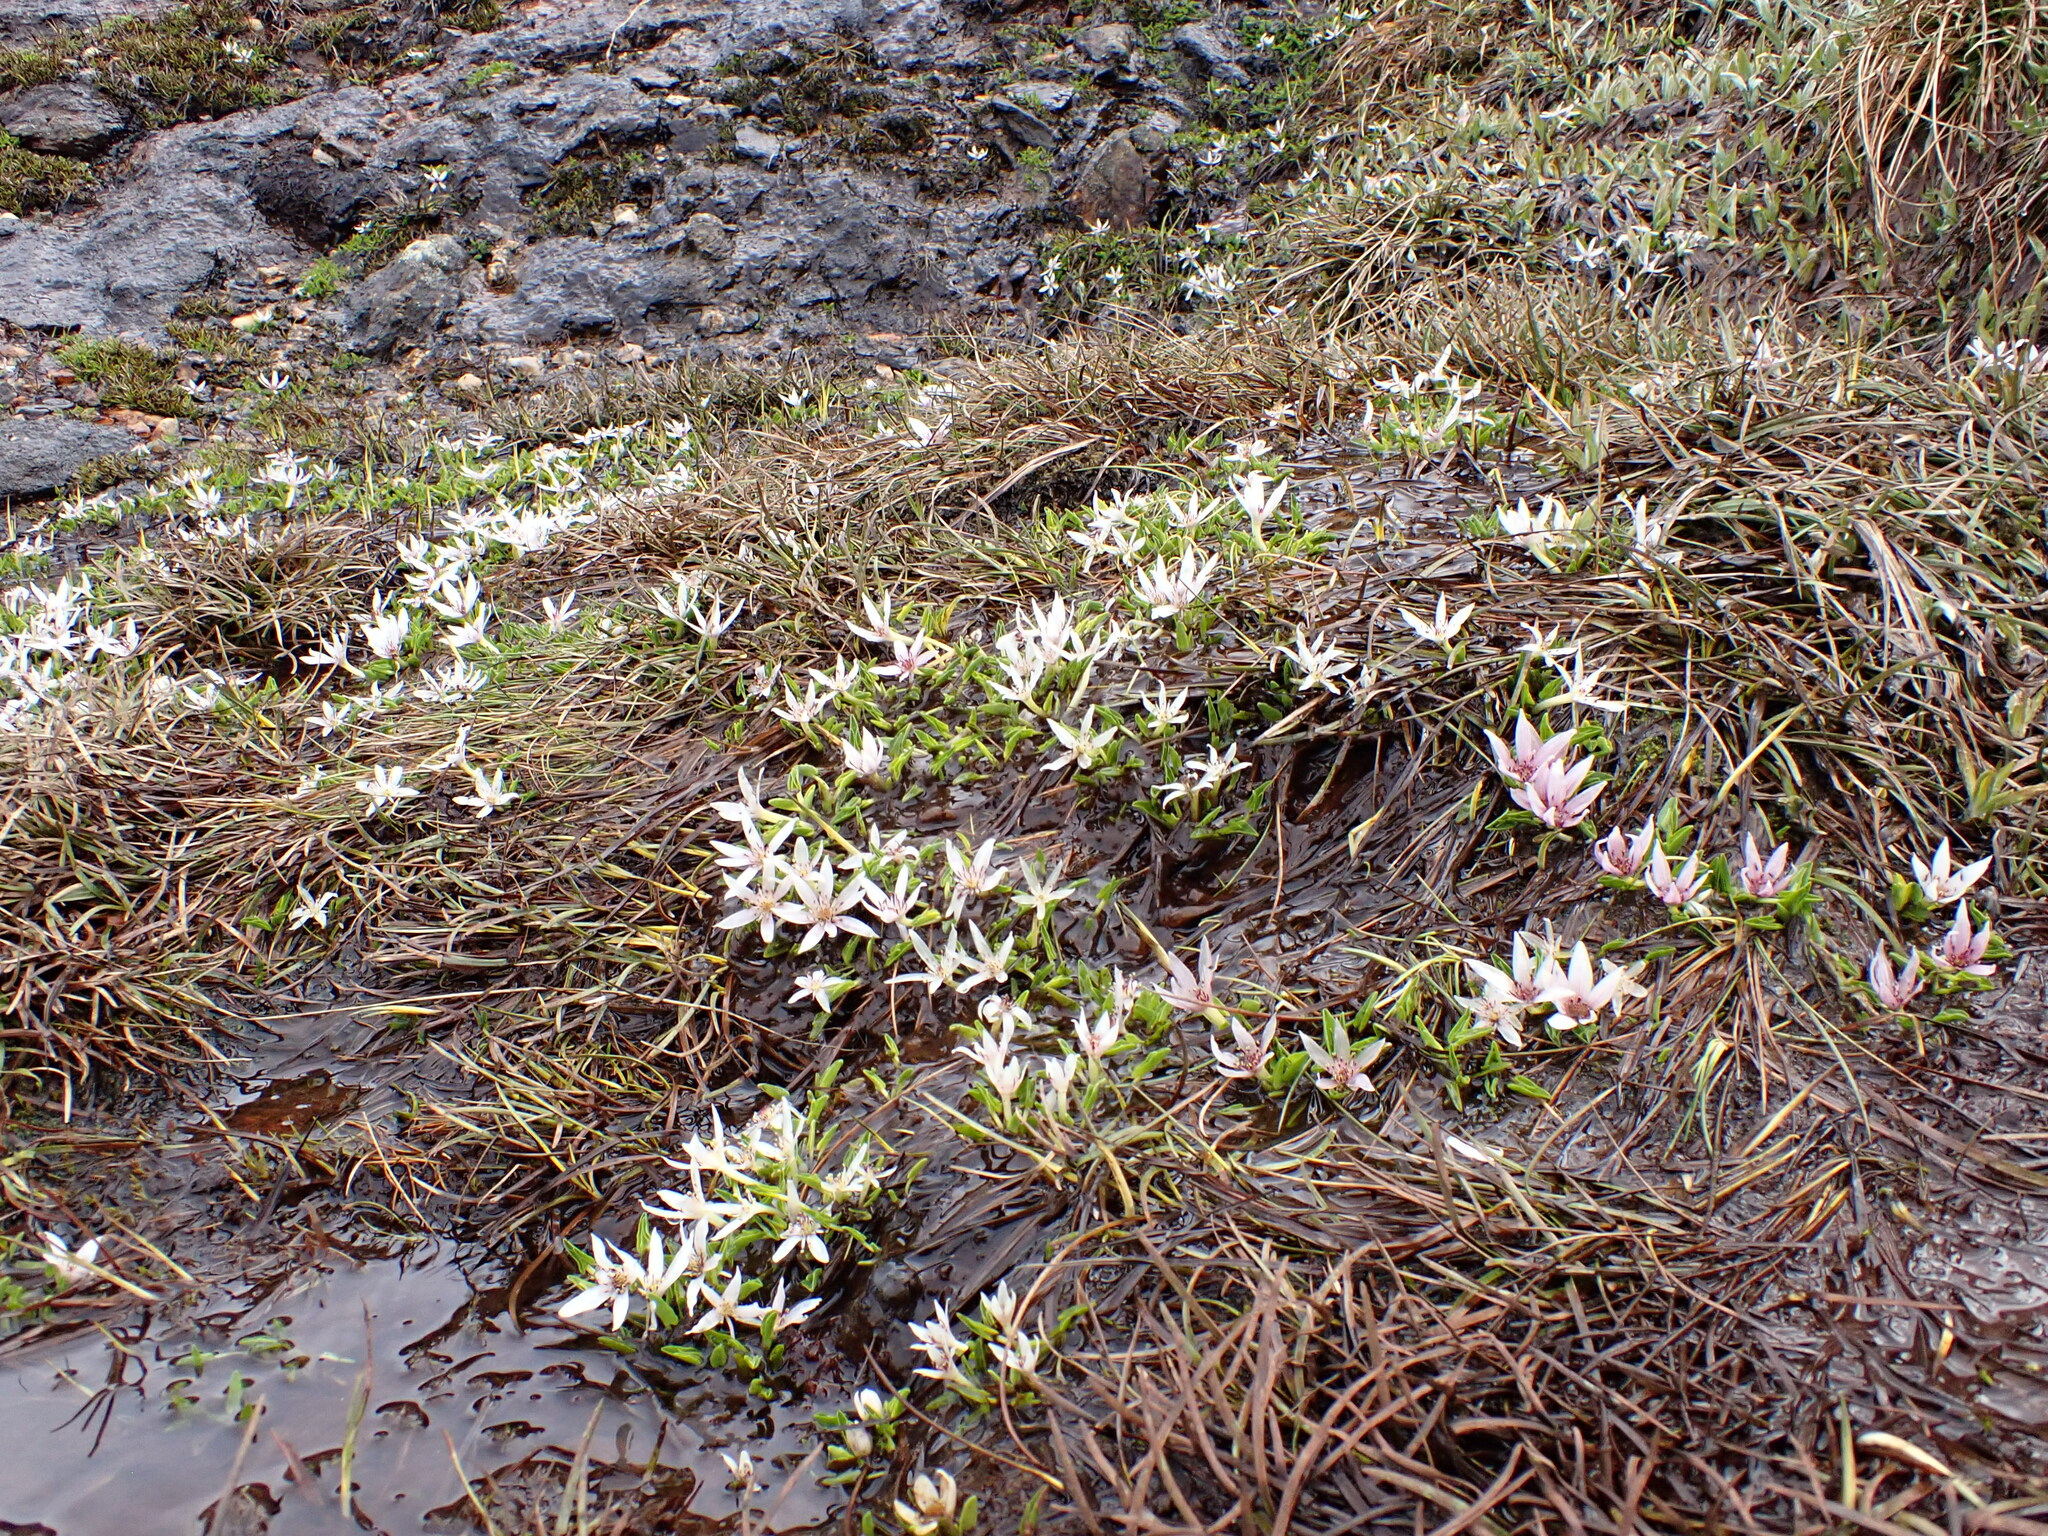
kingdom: Plantae
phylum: Tracheophyta
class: Magnoliopsida
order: Ranunculales
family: Ranunculaceae
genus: Caltha
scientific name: Caltha introloba
